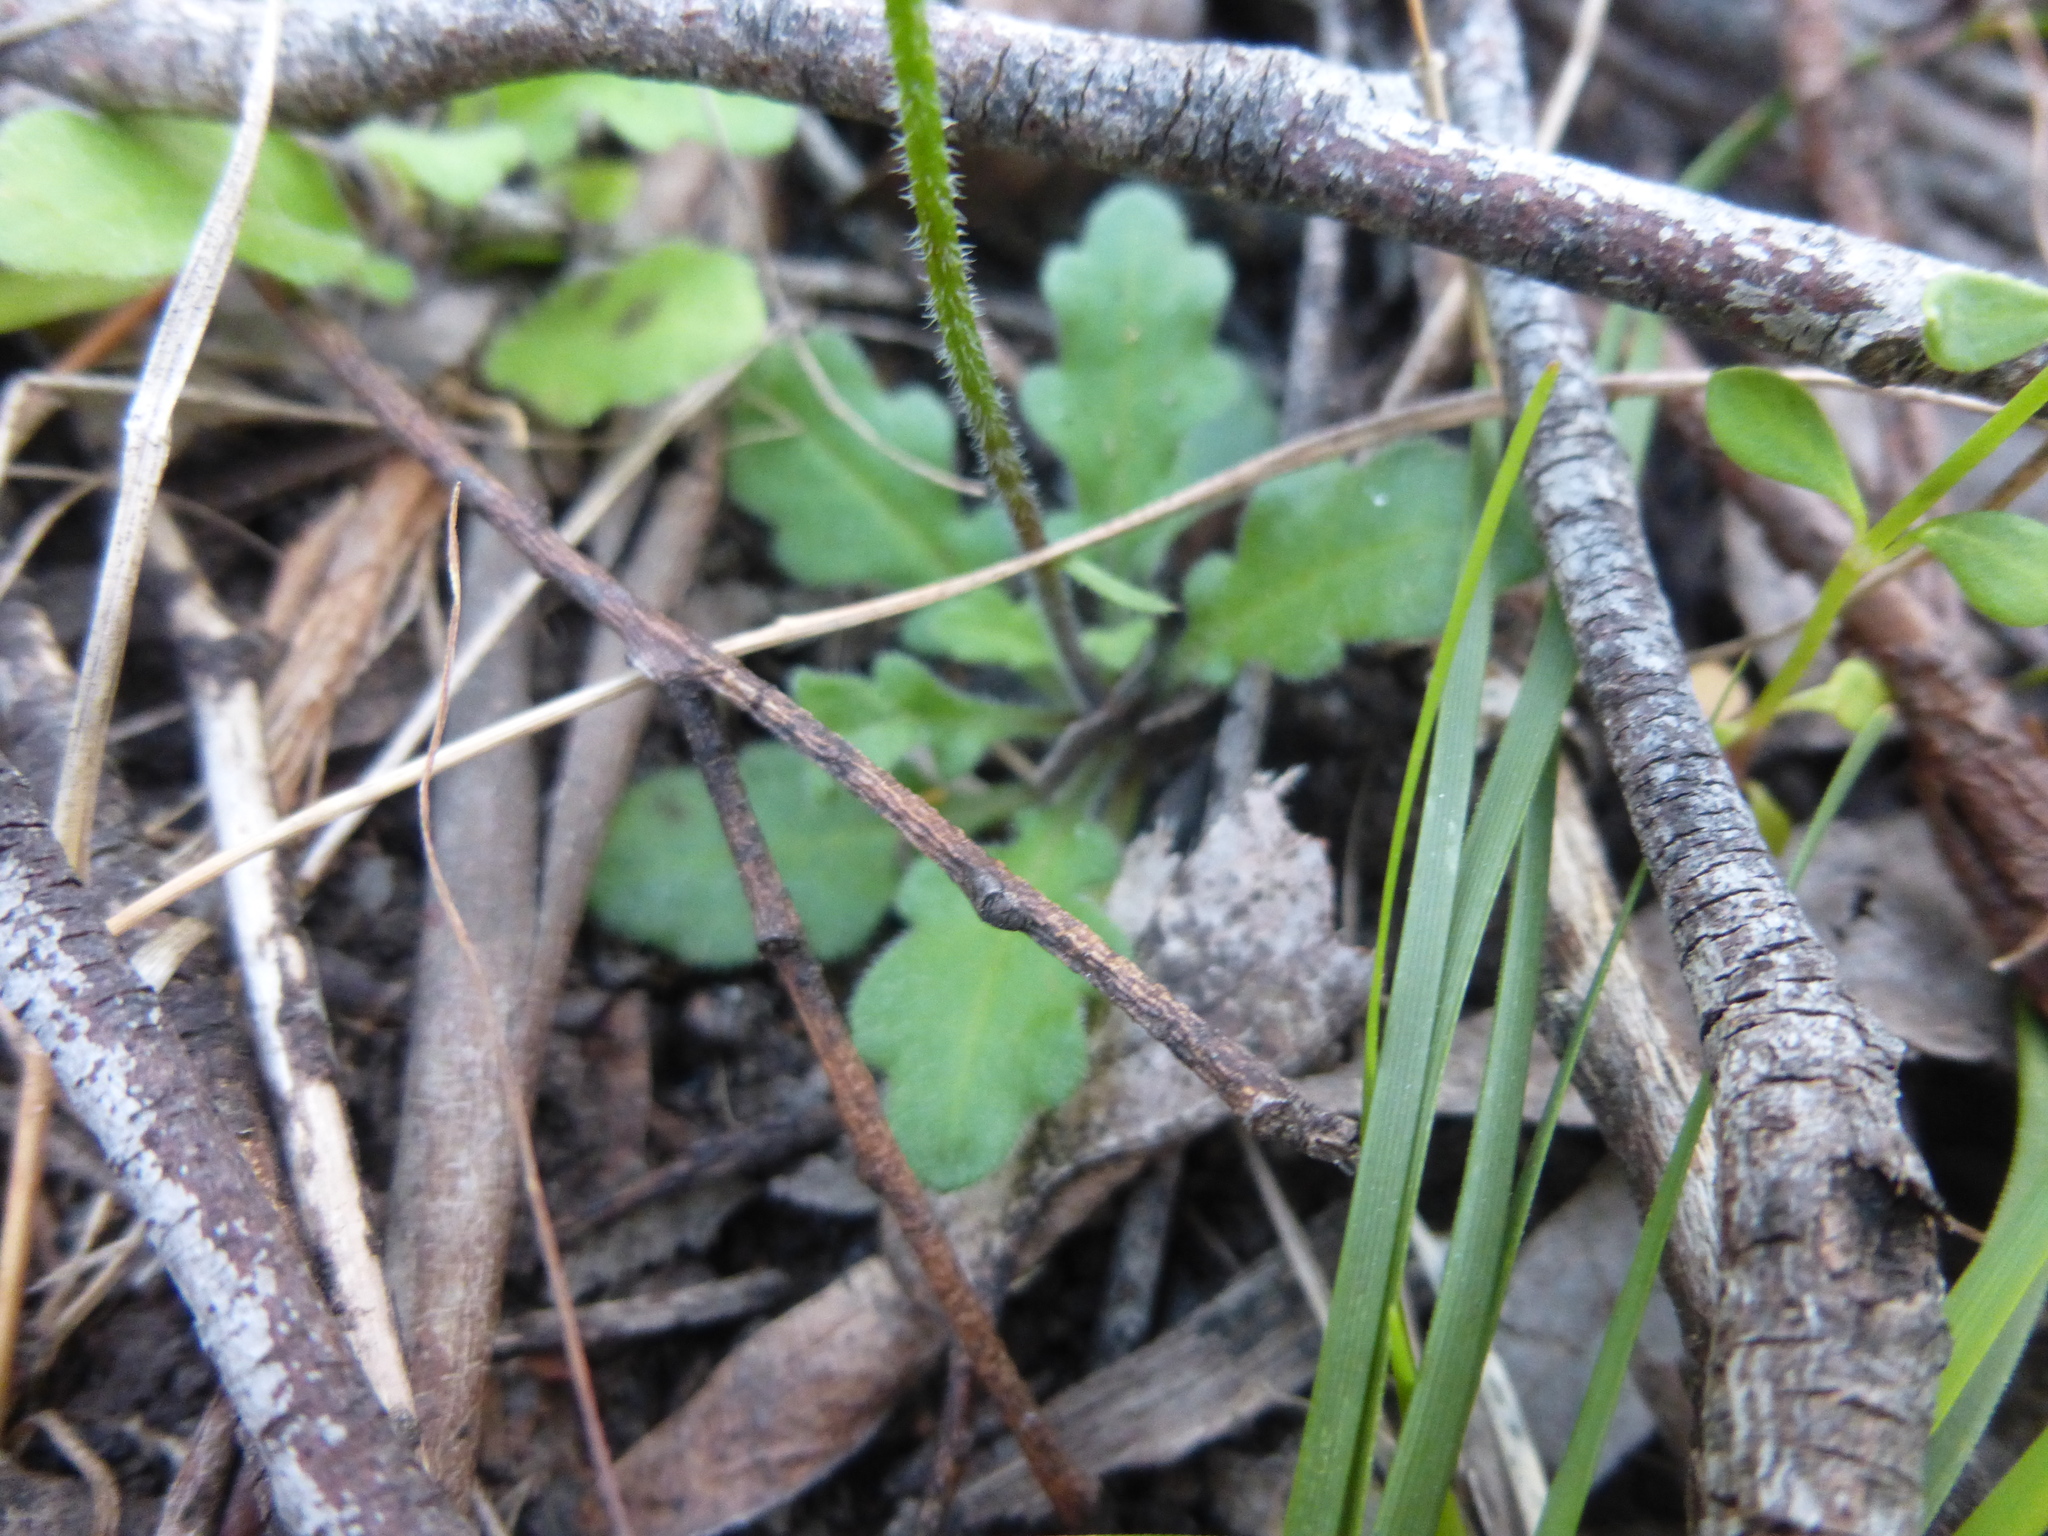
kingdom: Plantae
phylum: Tracheophyta
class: Magnoliopsida
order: Asterales
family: Asteraceae
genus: Lagenophora
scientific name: Lagenophora stipitata
